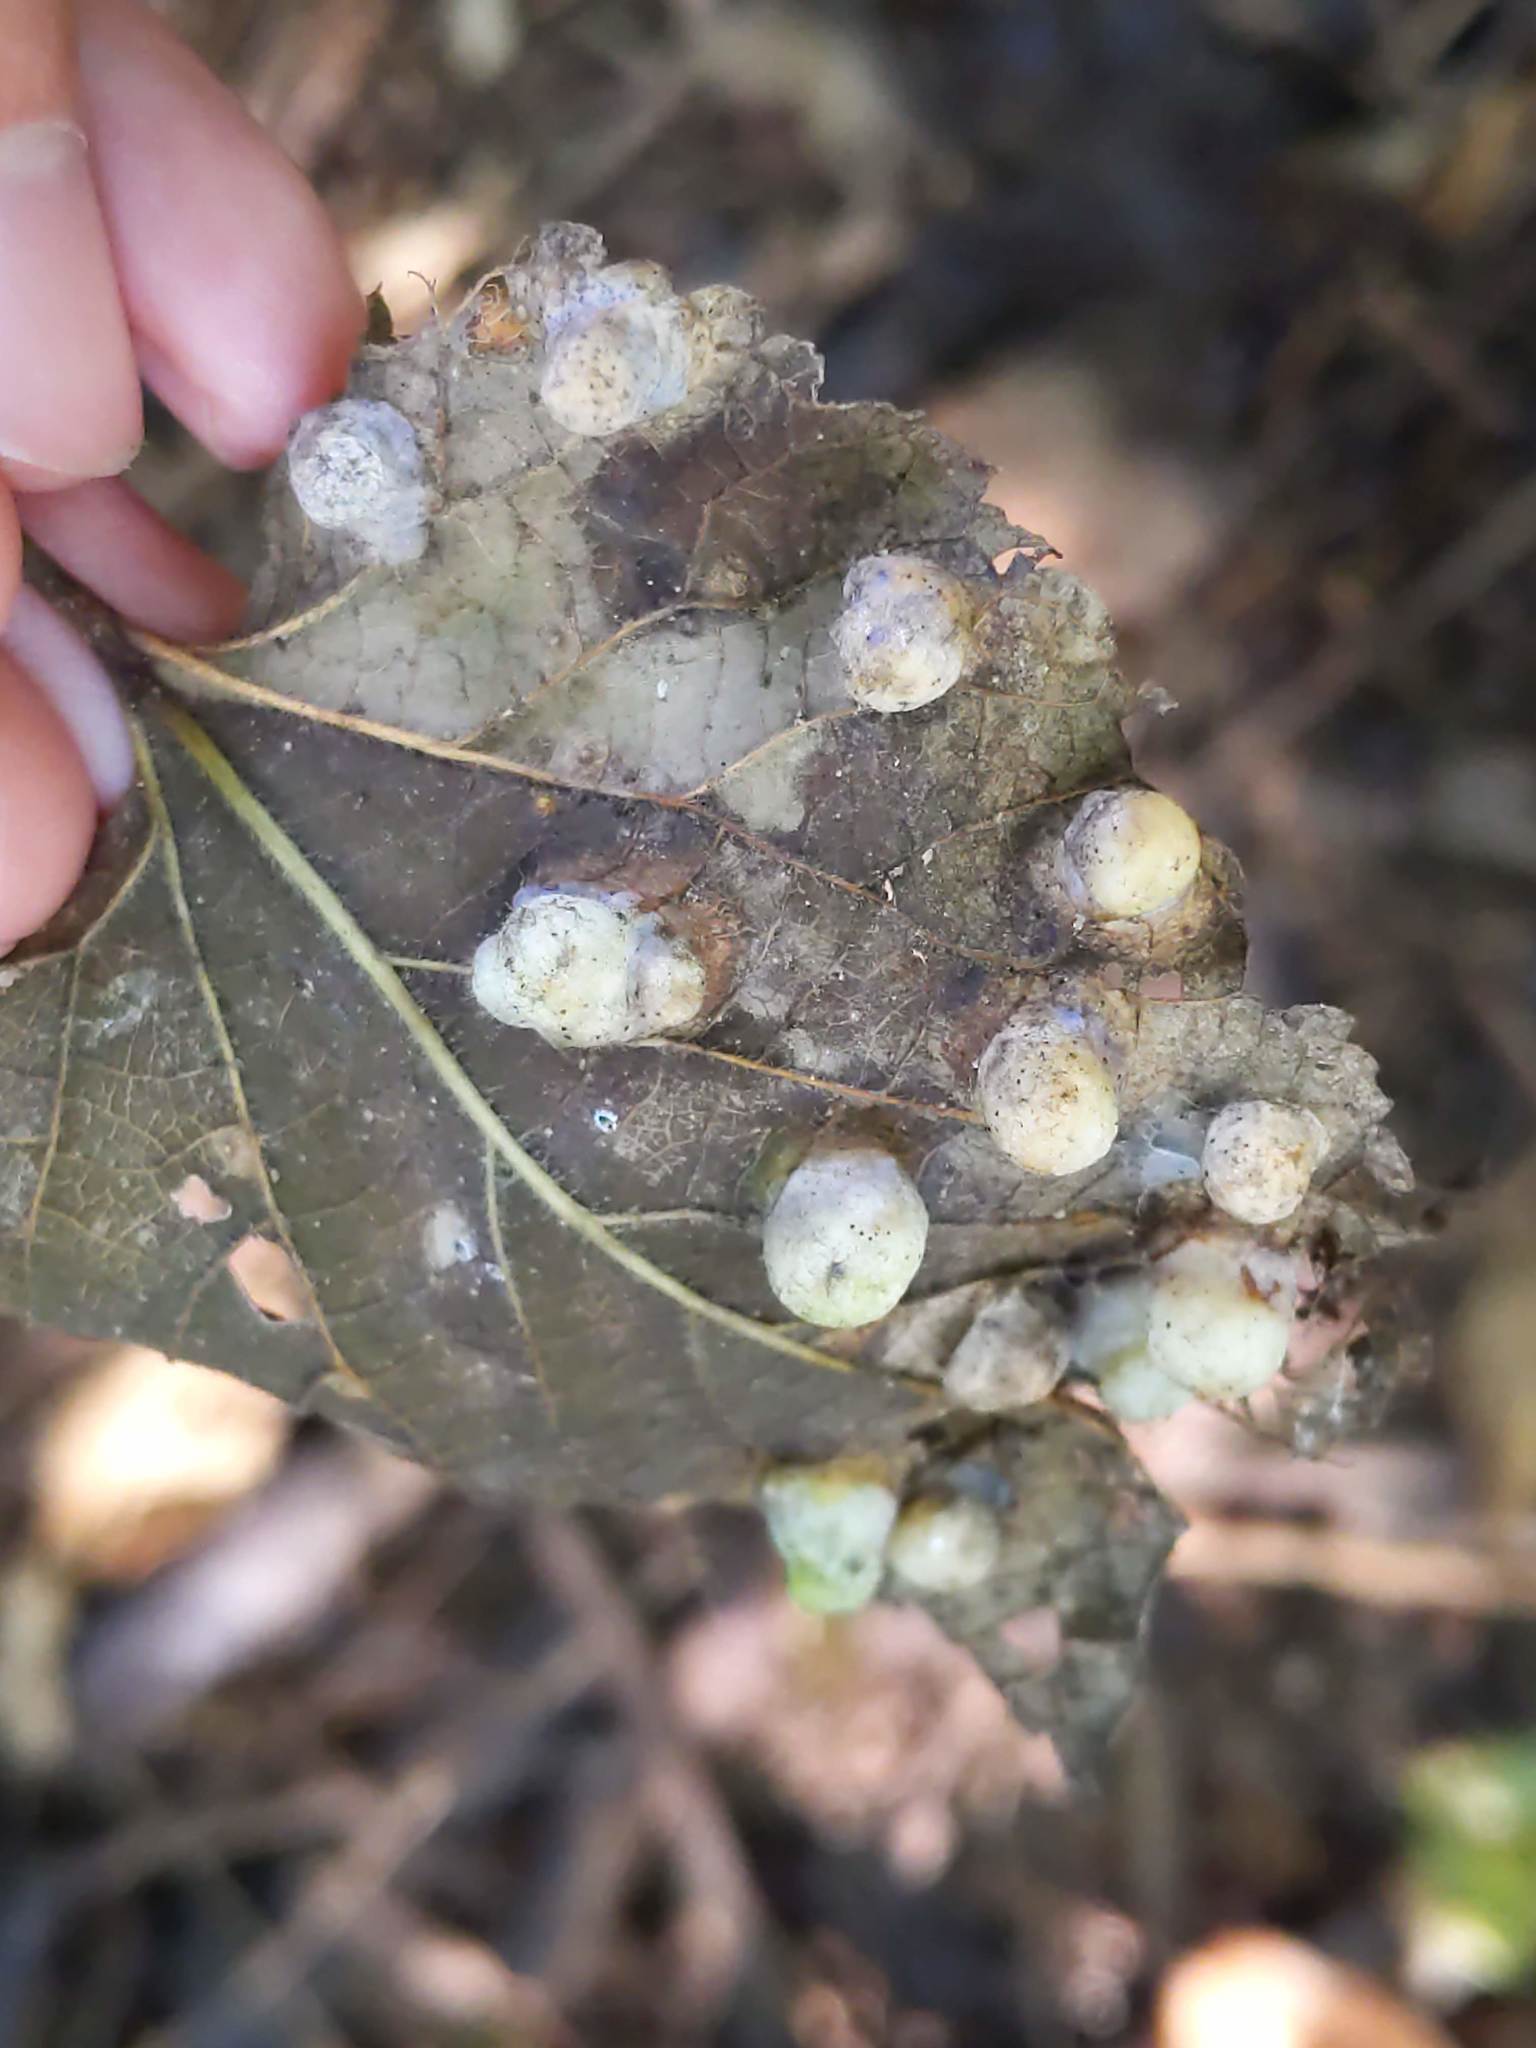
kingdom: Animalia
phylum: Arthropoda
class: Insecta
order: Hemiptera
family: Aphalaridae
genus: Pachypsylla
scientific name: Pachypsylla celtidismamma
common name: Hackberry nipplegall psyllid
